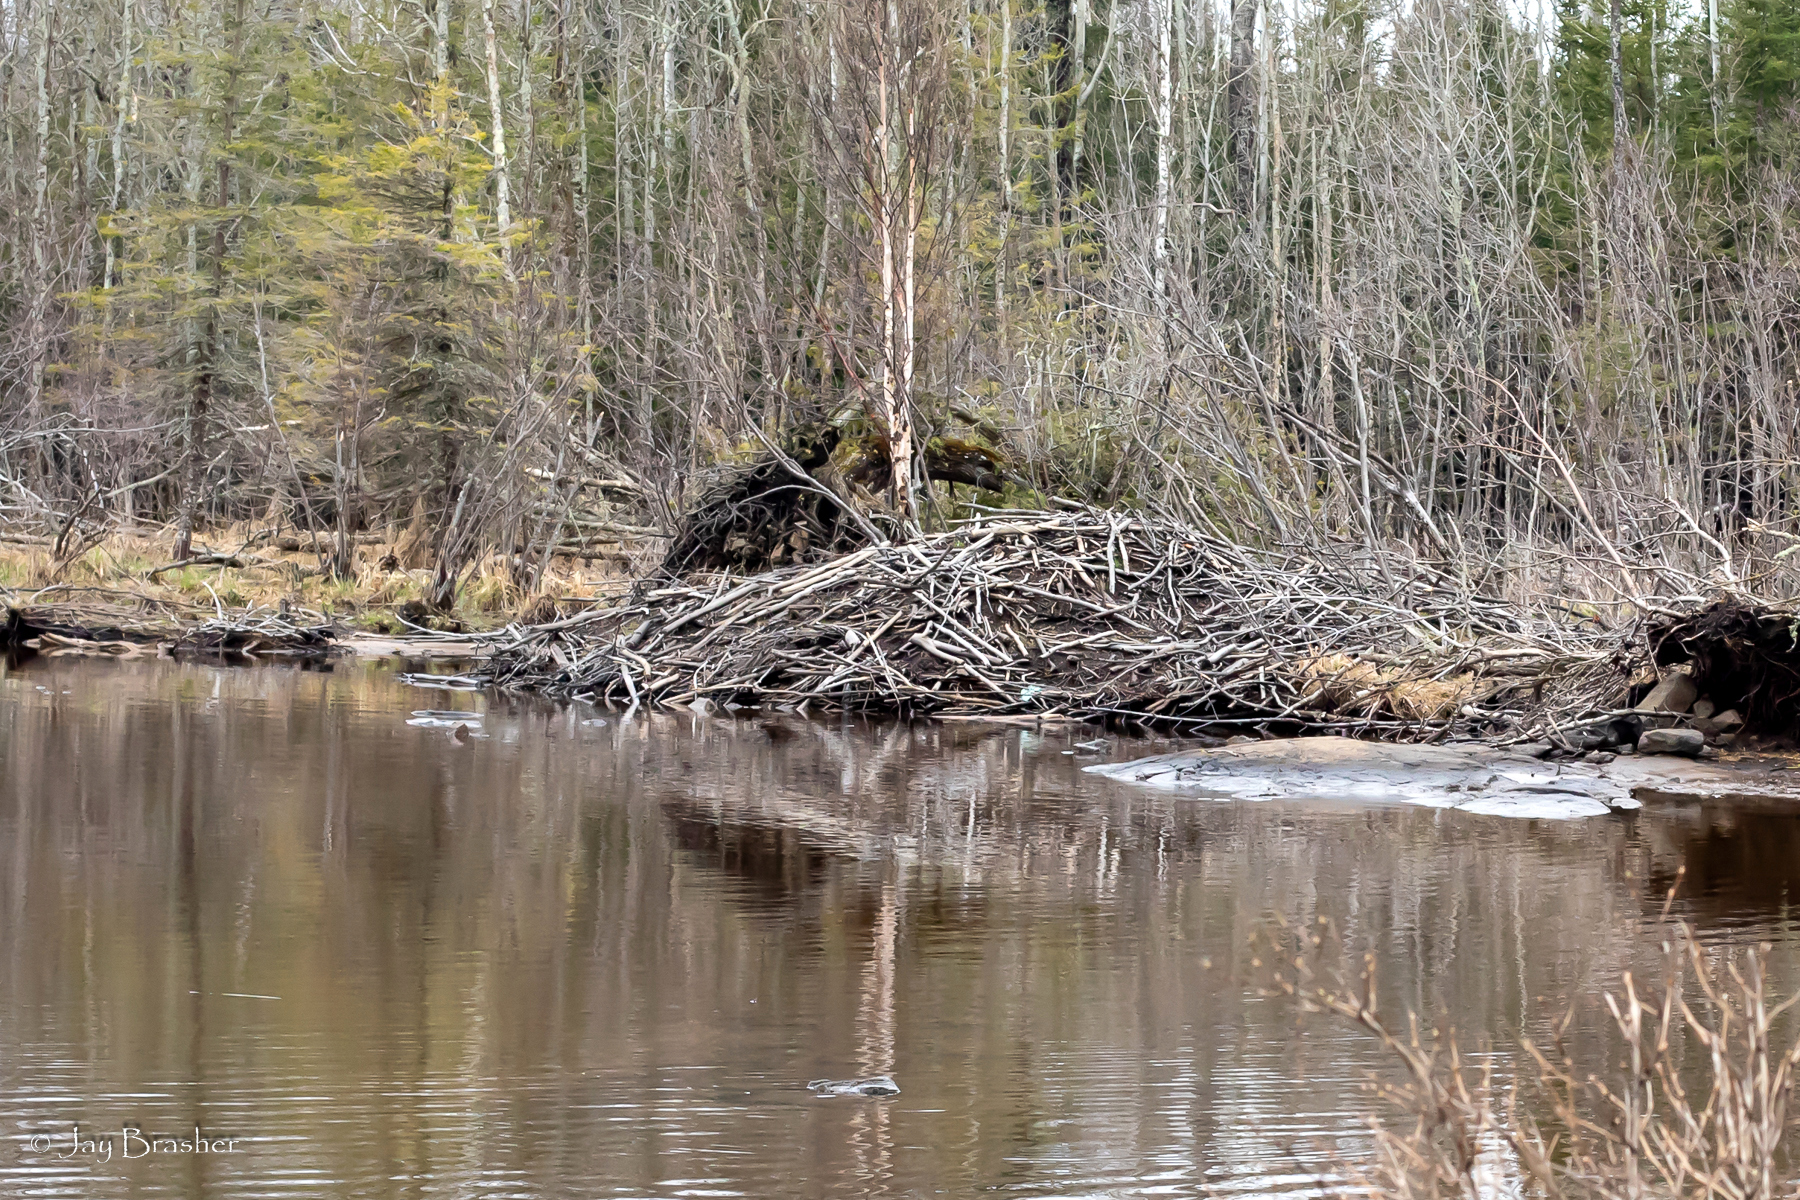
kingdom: Animalia
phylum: Chordata
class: Mammalia
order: Rodentia
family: Castoridae
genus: Castor
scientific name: Castor canadensis
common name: American beaver
